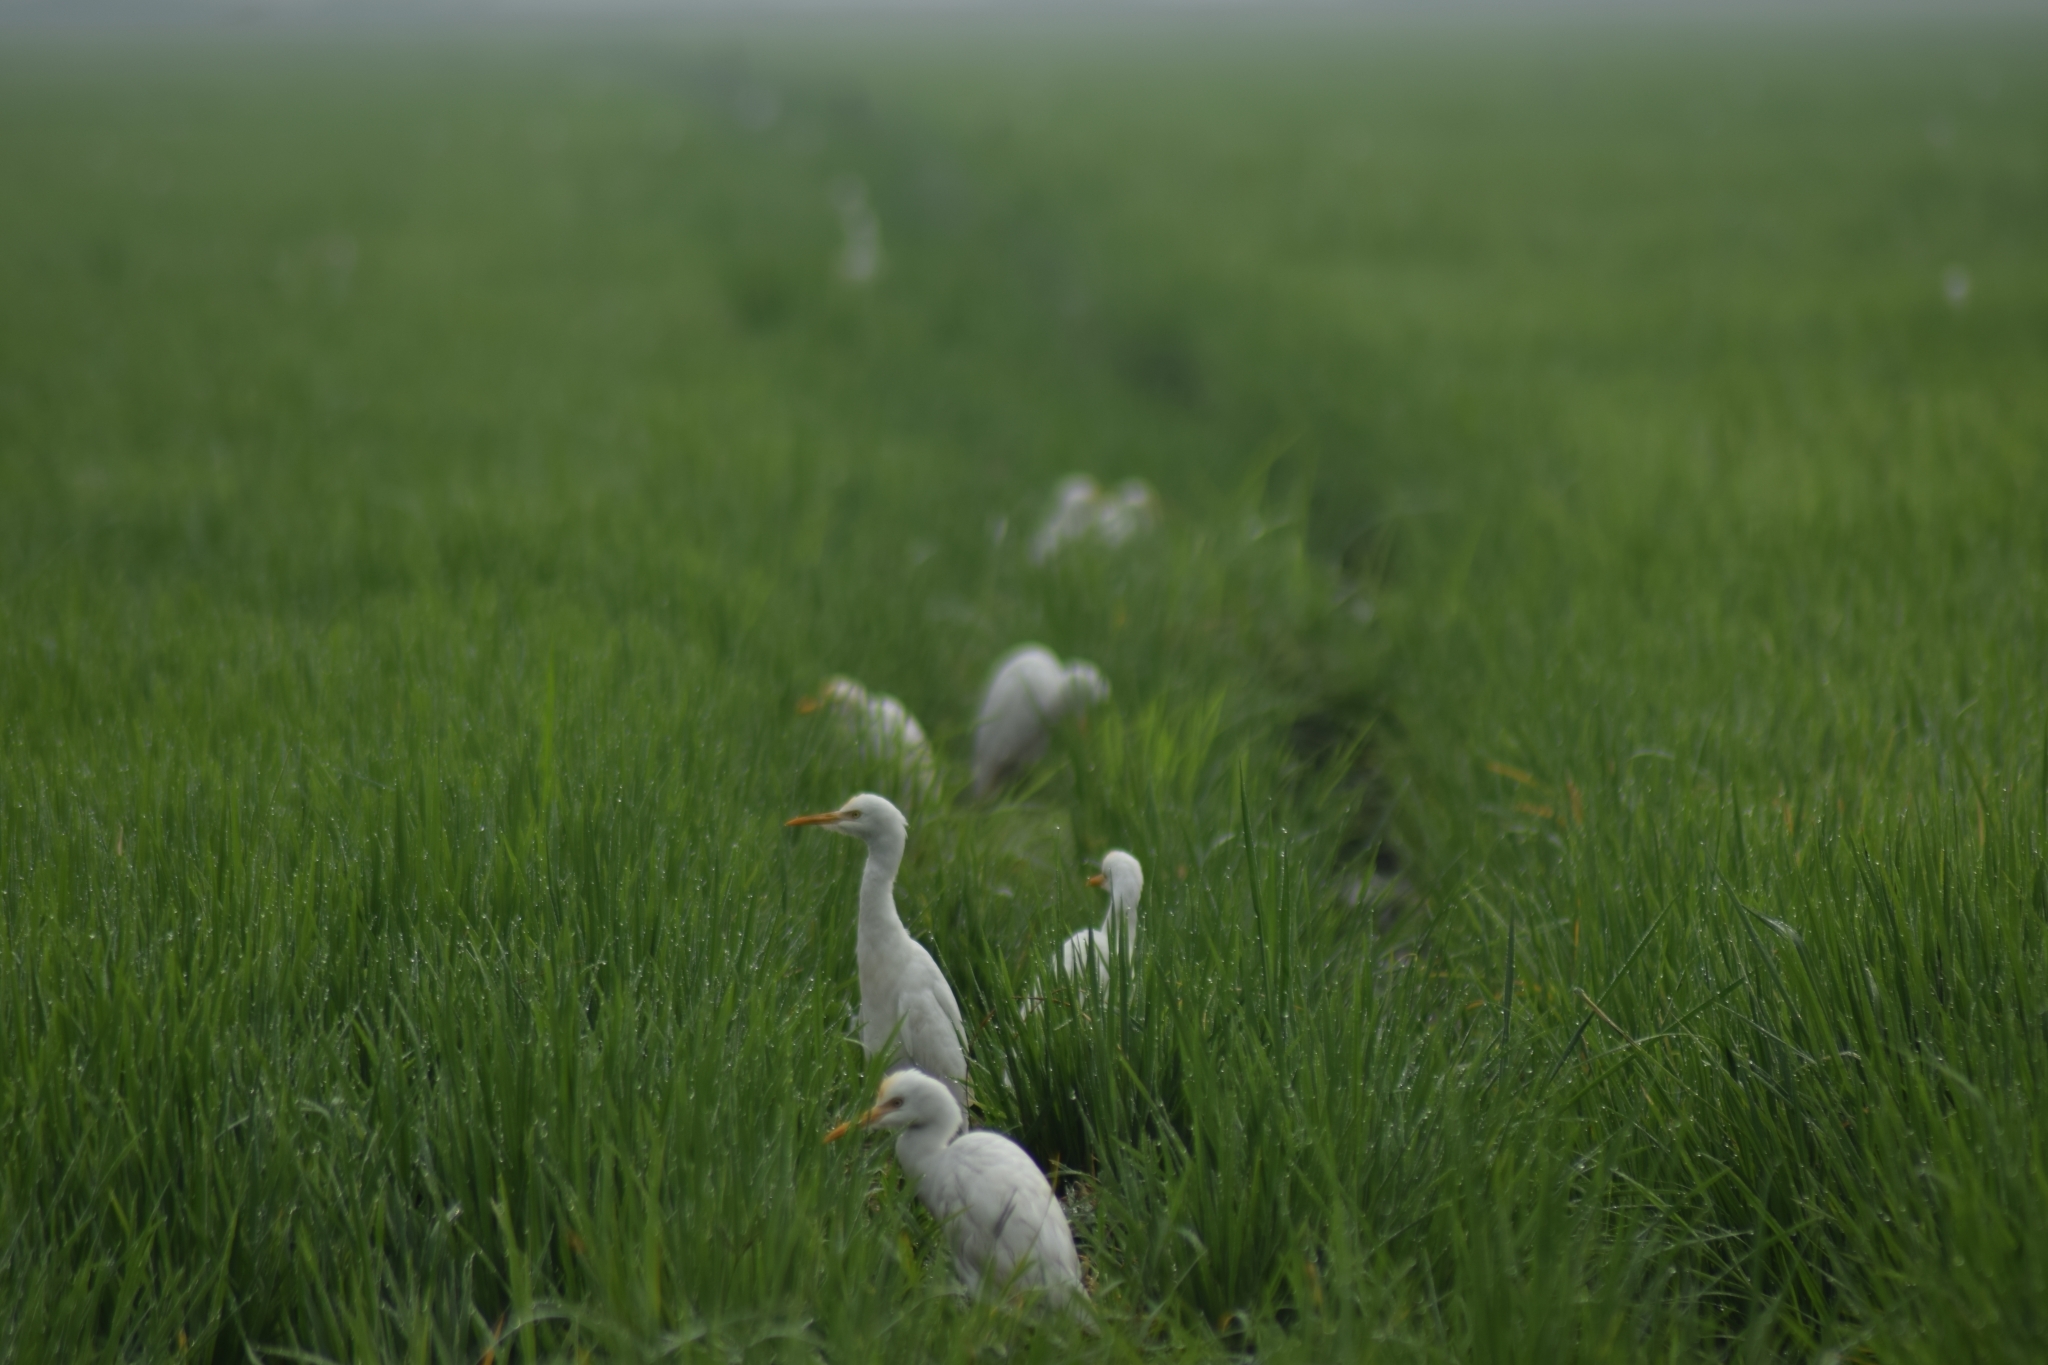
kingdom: Animalia
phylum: Chordata
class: Aves
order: Pelecaniformes
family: Ardeidae
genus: Bubulcus
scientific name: Bubulcus coromandus
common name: Eastern cattle egret
